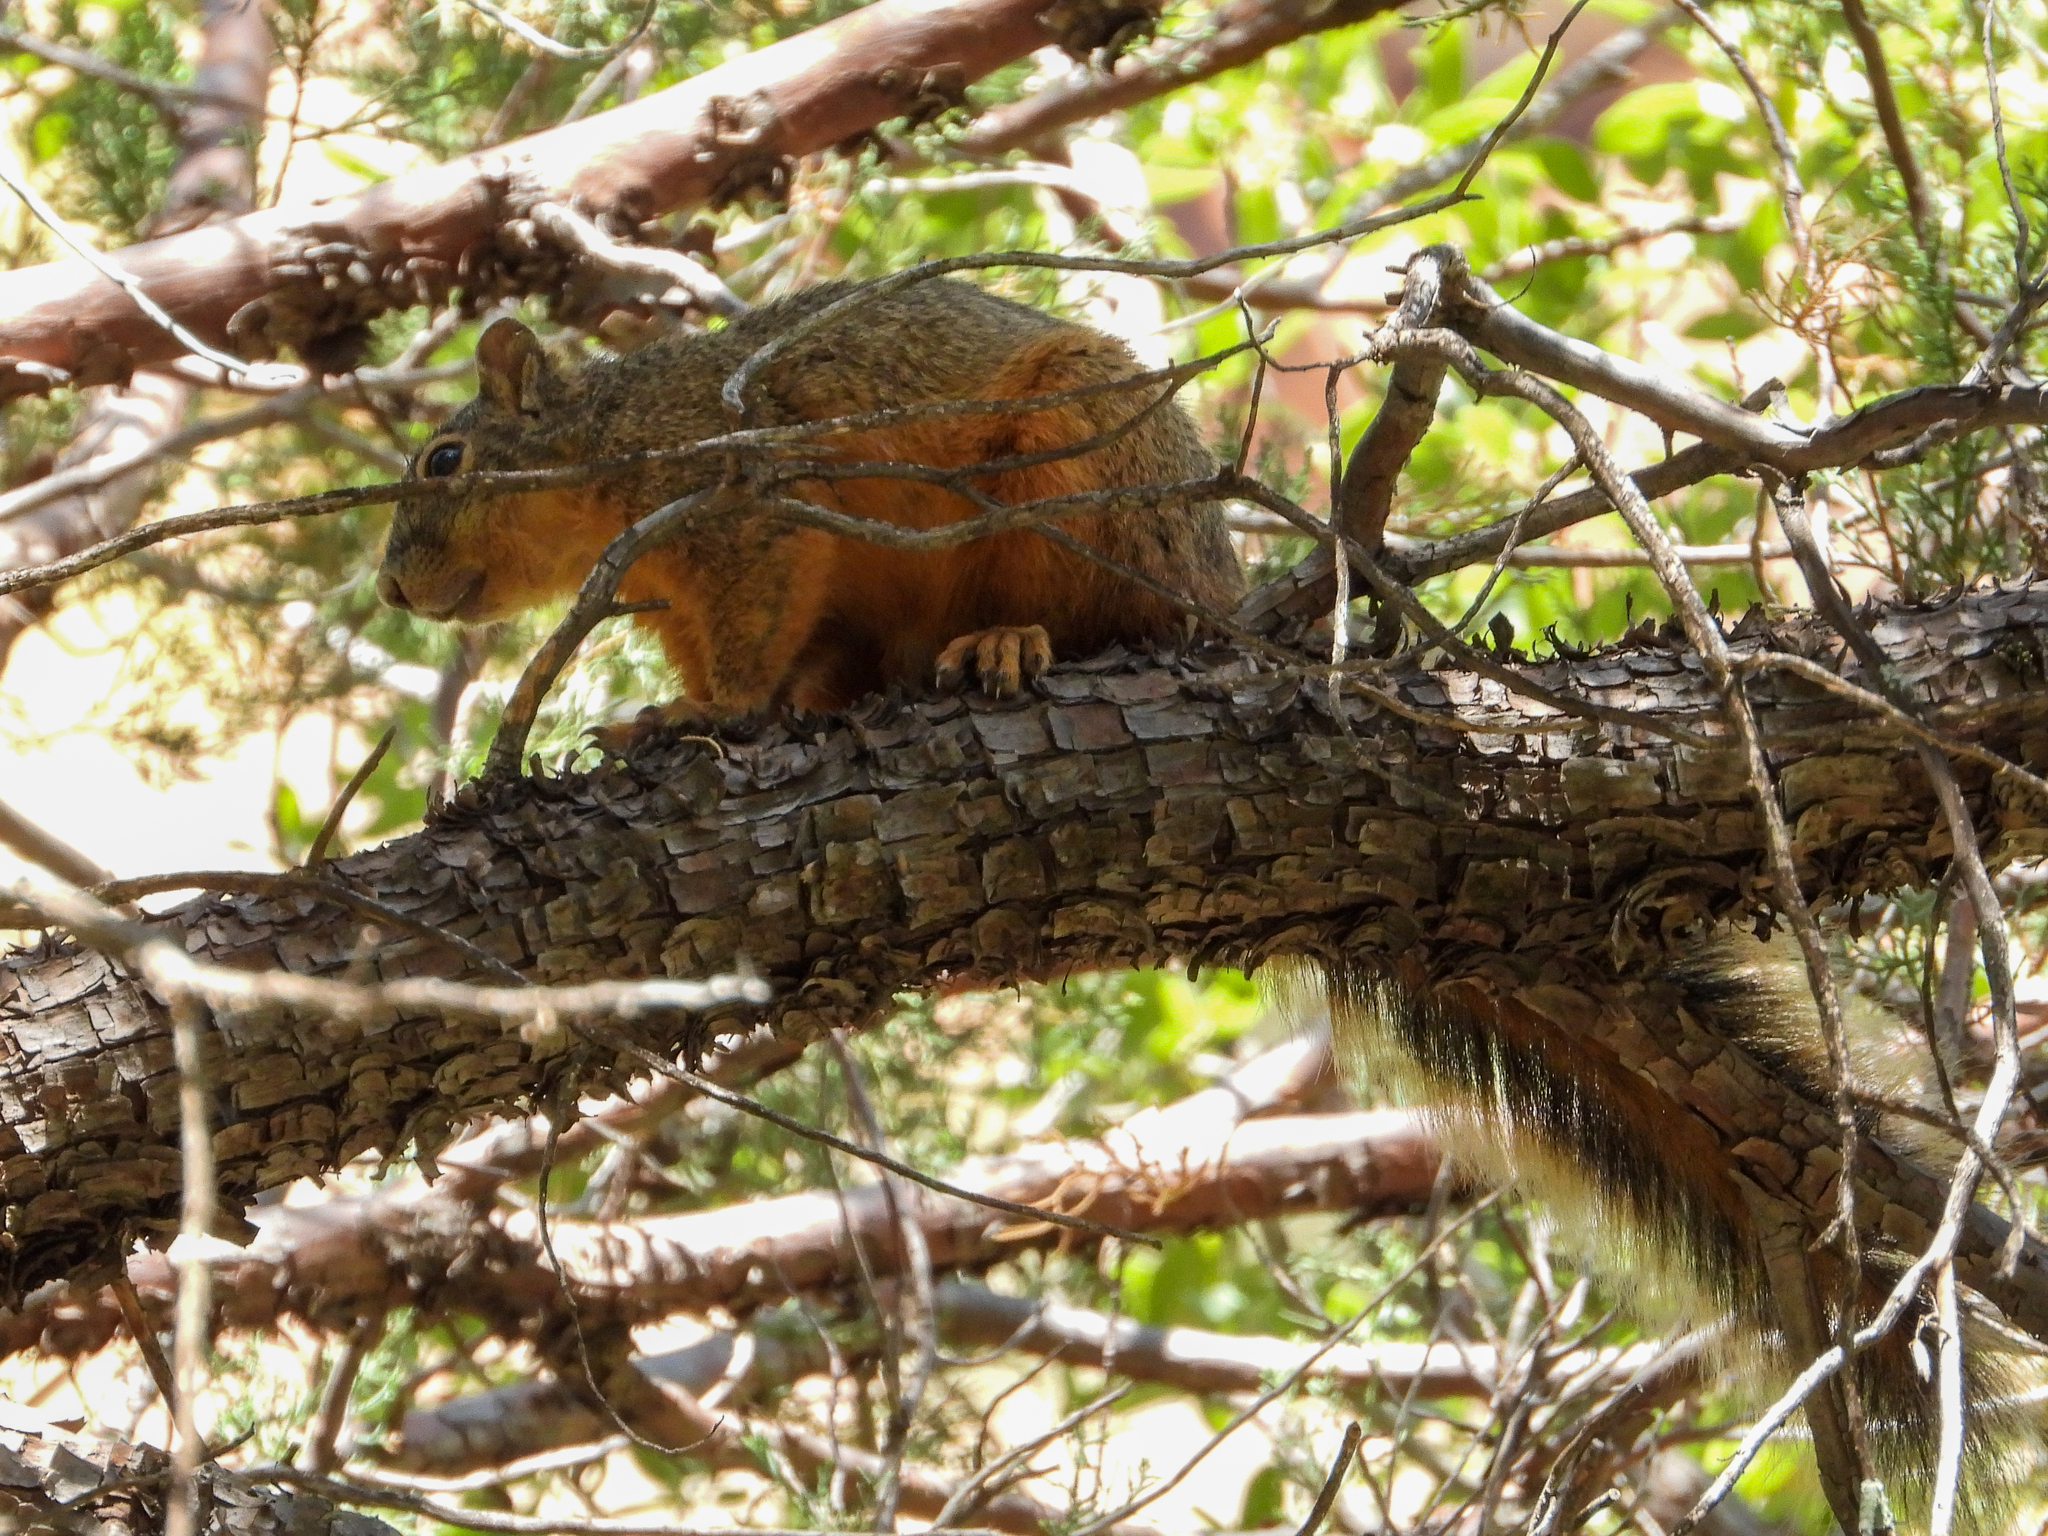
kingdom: Animalia
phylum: Chordata
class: Mammalia
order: Rodentia
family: Sciuridae
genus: Sciurus
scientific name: Sciurus nayaritensis
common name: Mexican fox squirrel
